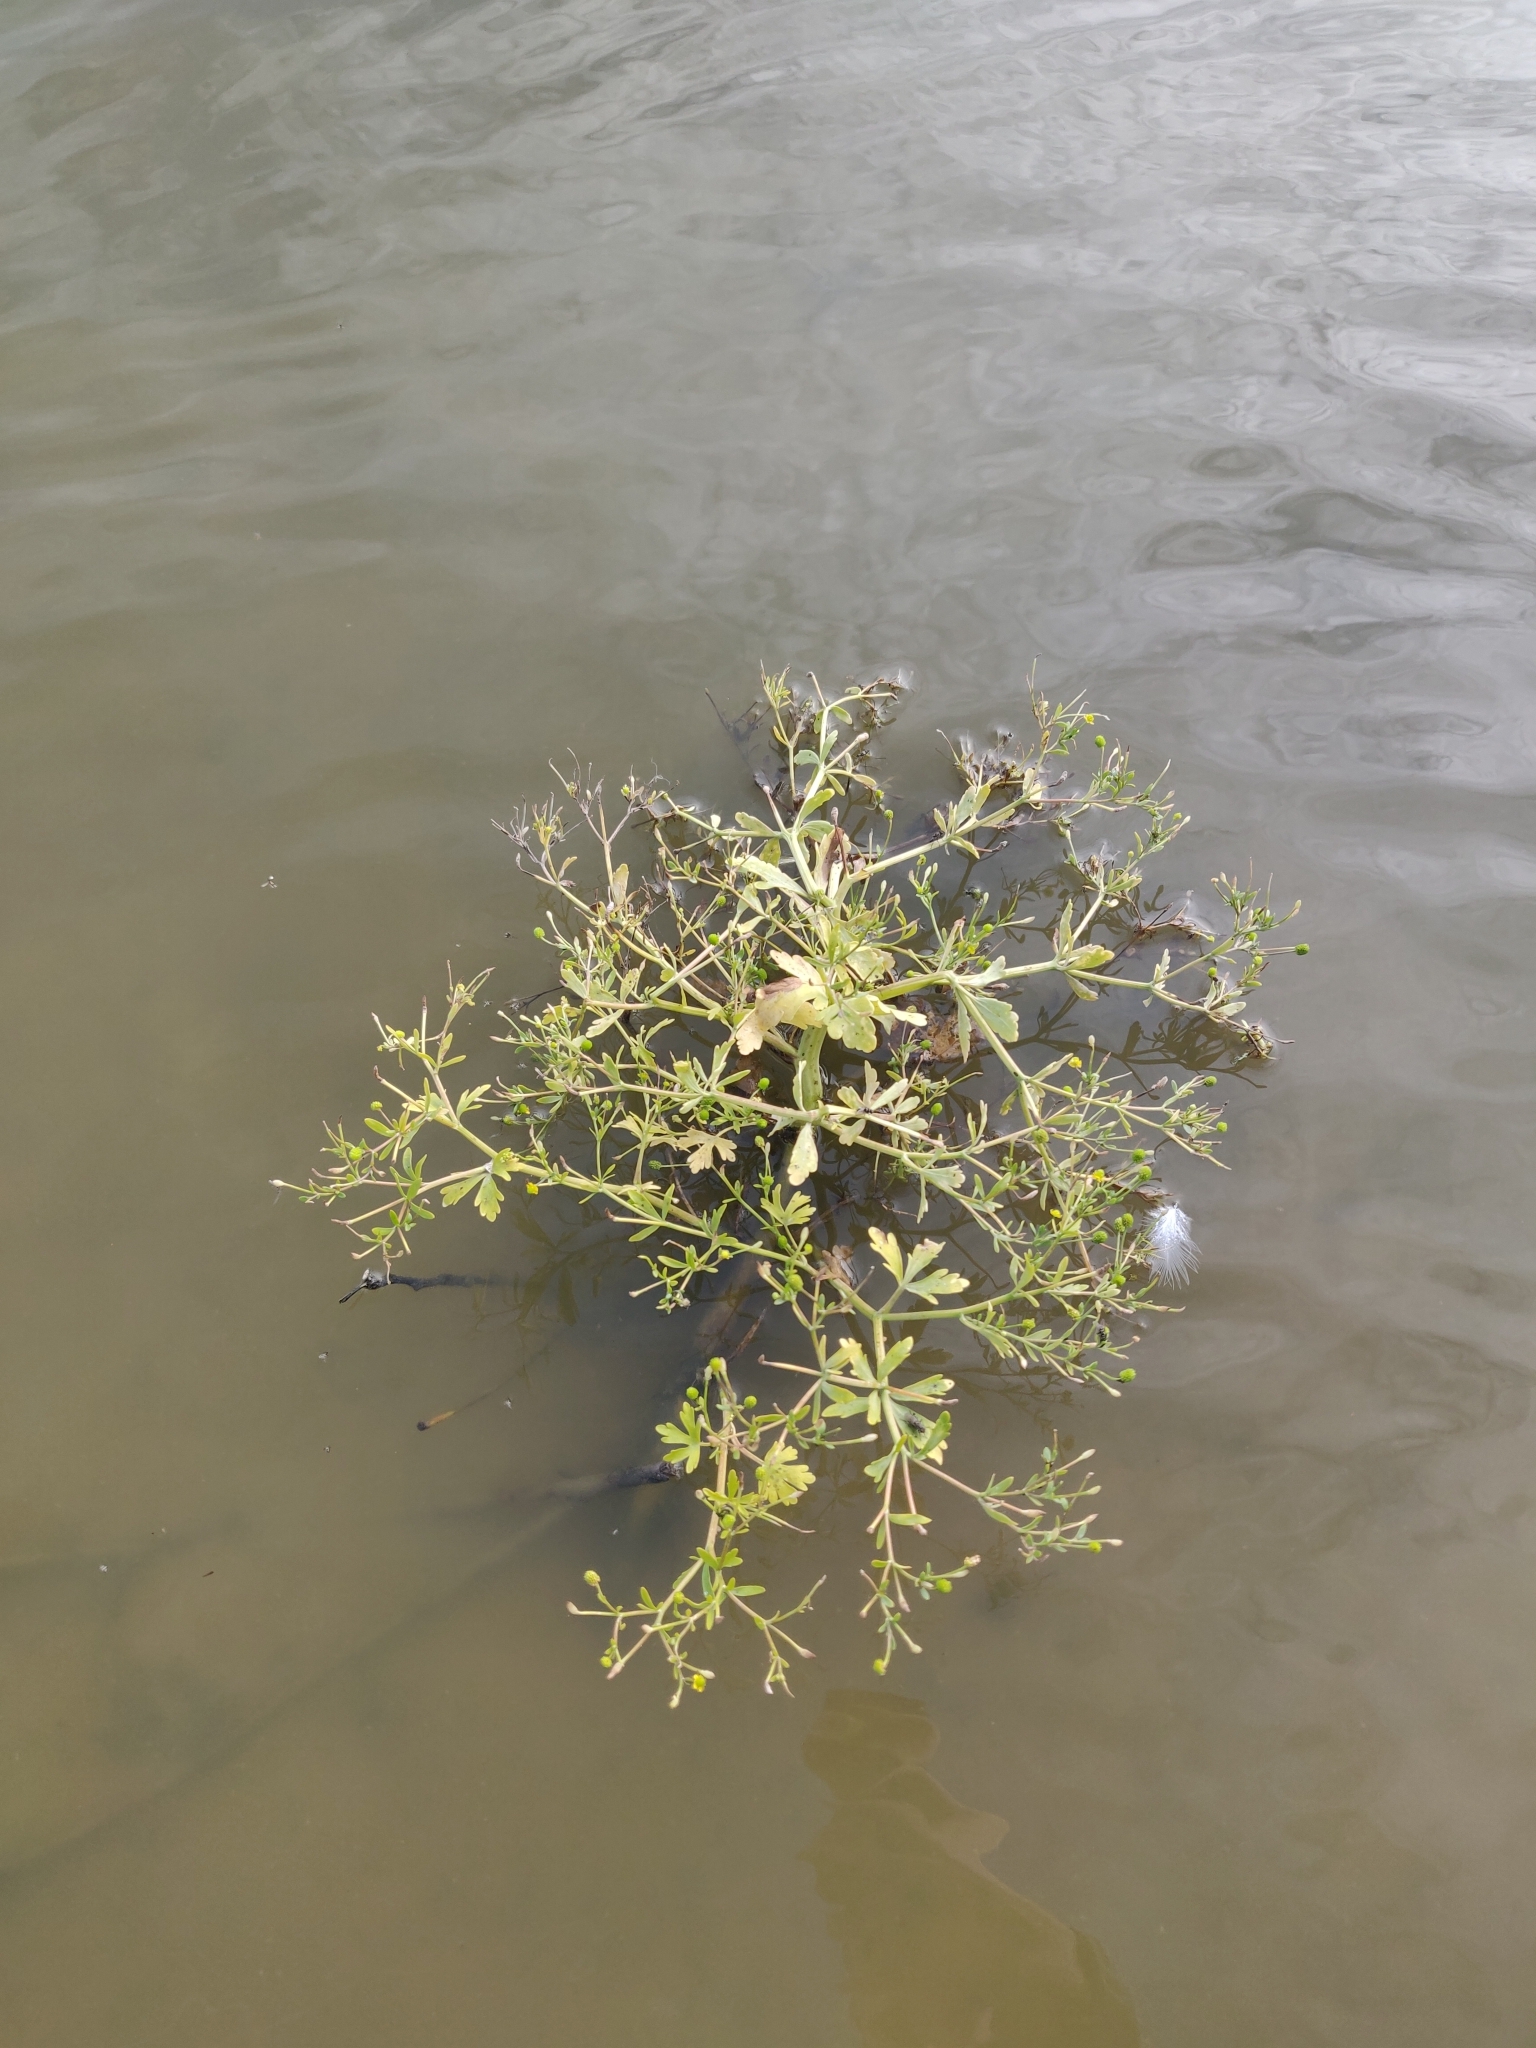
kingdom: Plantae
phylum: Tracheophyta
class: Magnoliopsida
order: Ranunculales
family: Ranunculaceae
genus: Ranunculus
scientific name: Ranunculus sceleratus
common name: Celery-leaved buttercup
